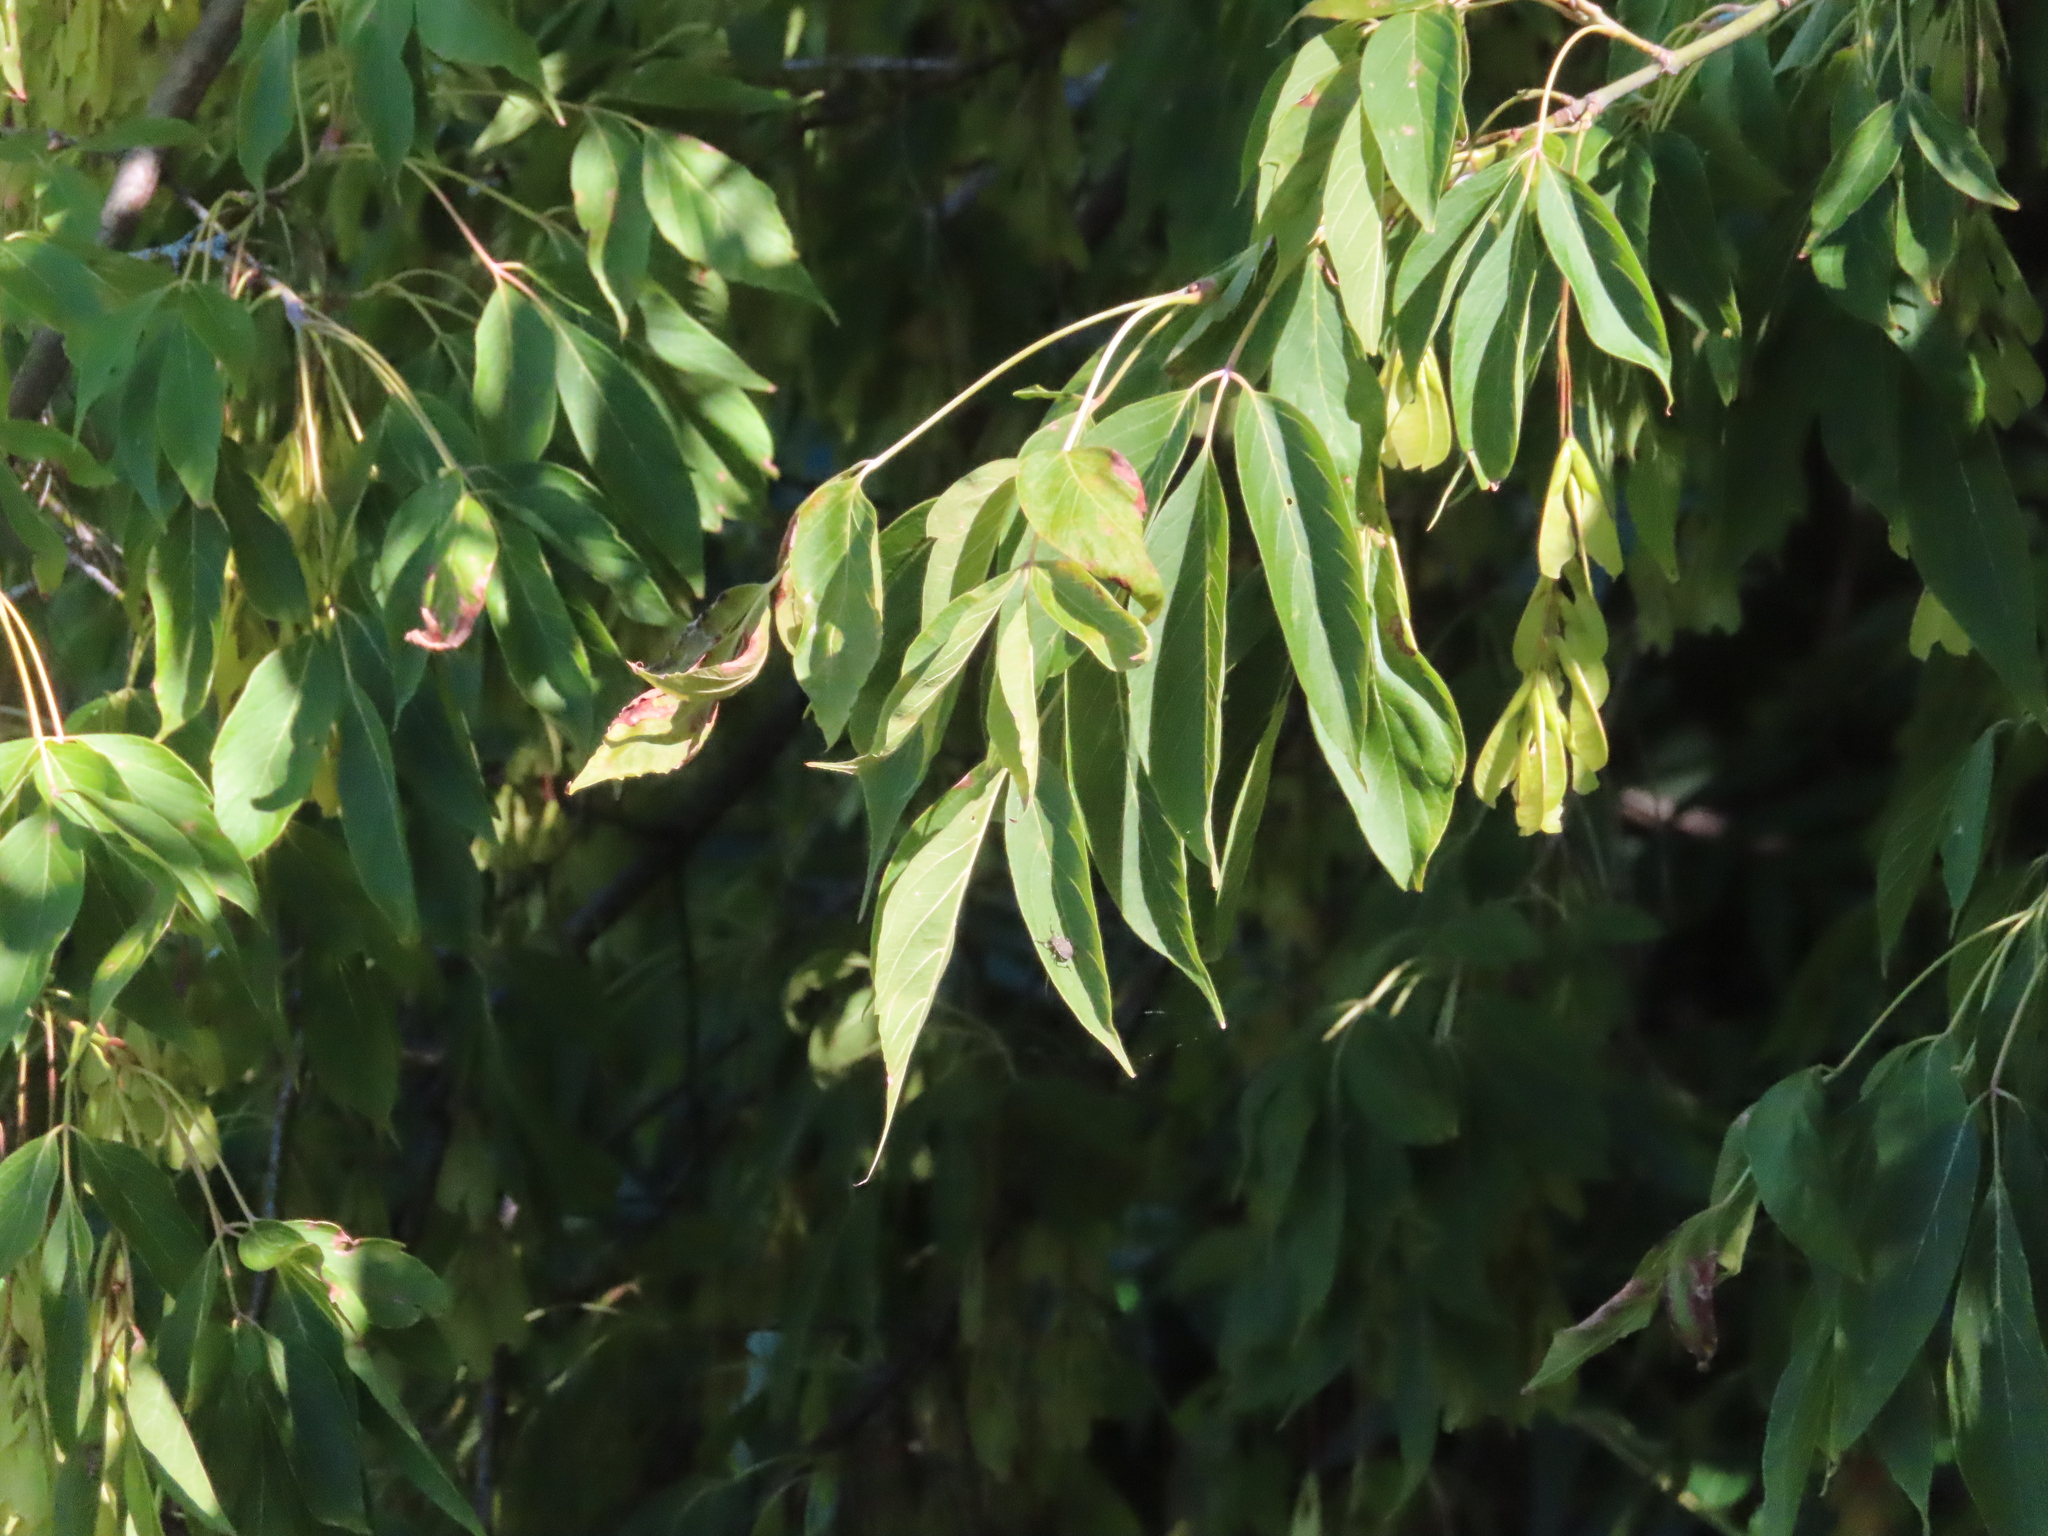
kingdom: Plantae
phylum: Tracheophyta
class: Magnoliopsida
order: Sapindales
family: Sapindaceae
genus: Acer
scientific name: Acer negundo
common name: Ashleaf maple
